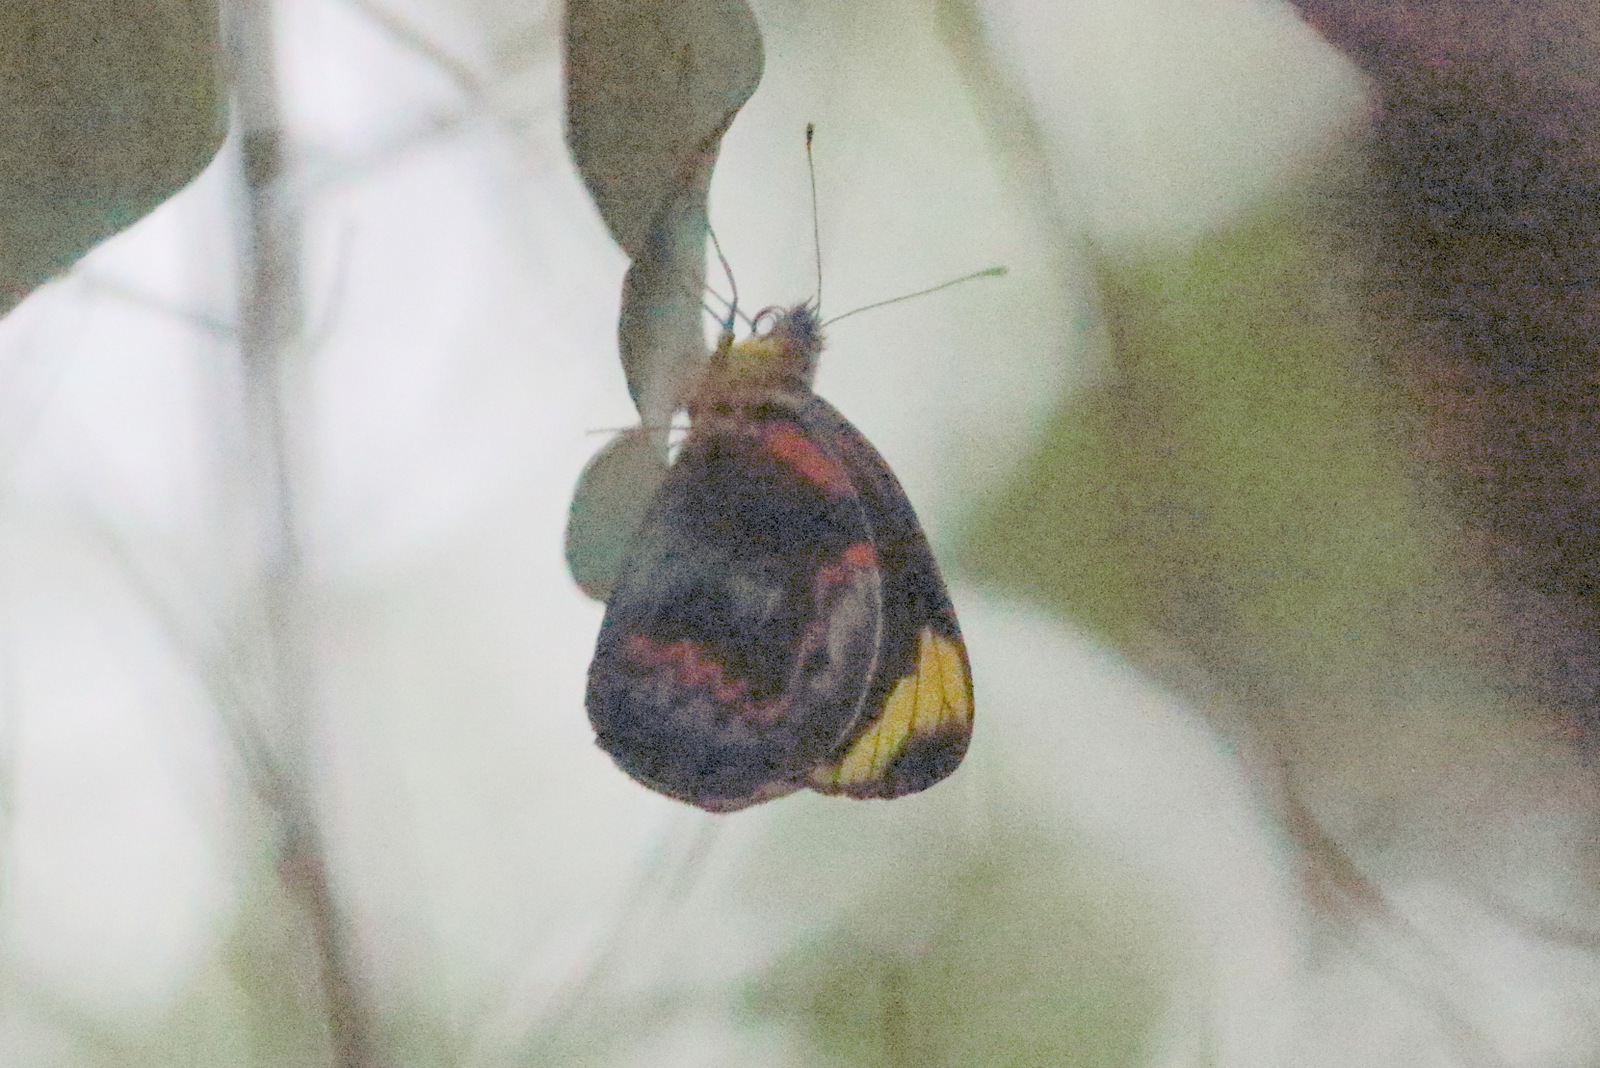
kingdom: Animalia
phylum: Arthropoda
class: Insecta
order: Lepidoptera
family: Pieridae
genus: Delias
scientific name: Delias nigrina
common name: Black jezebel
